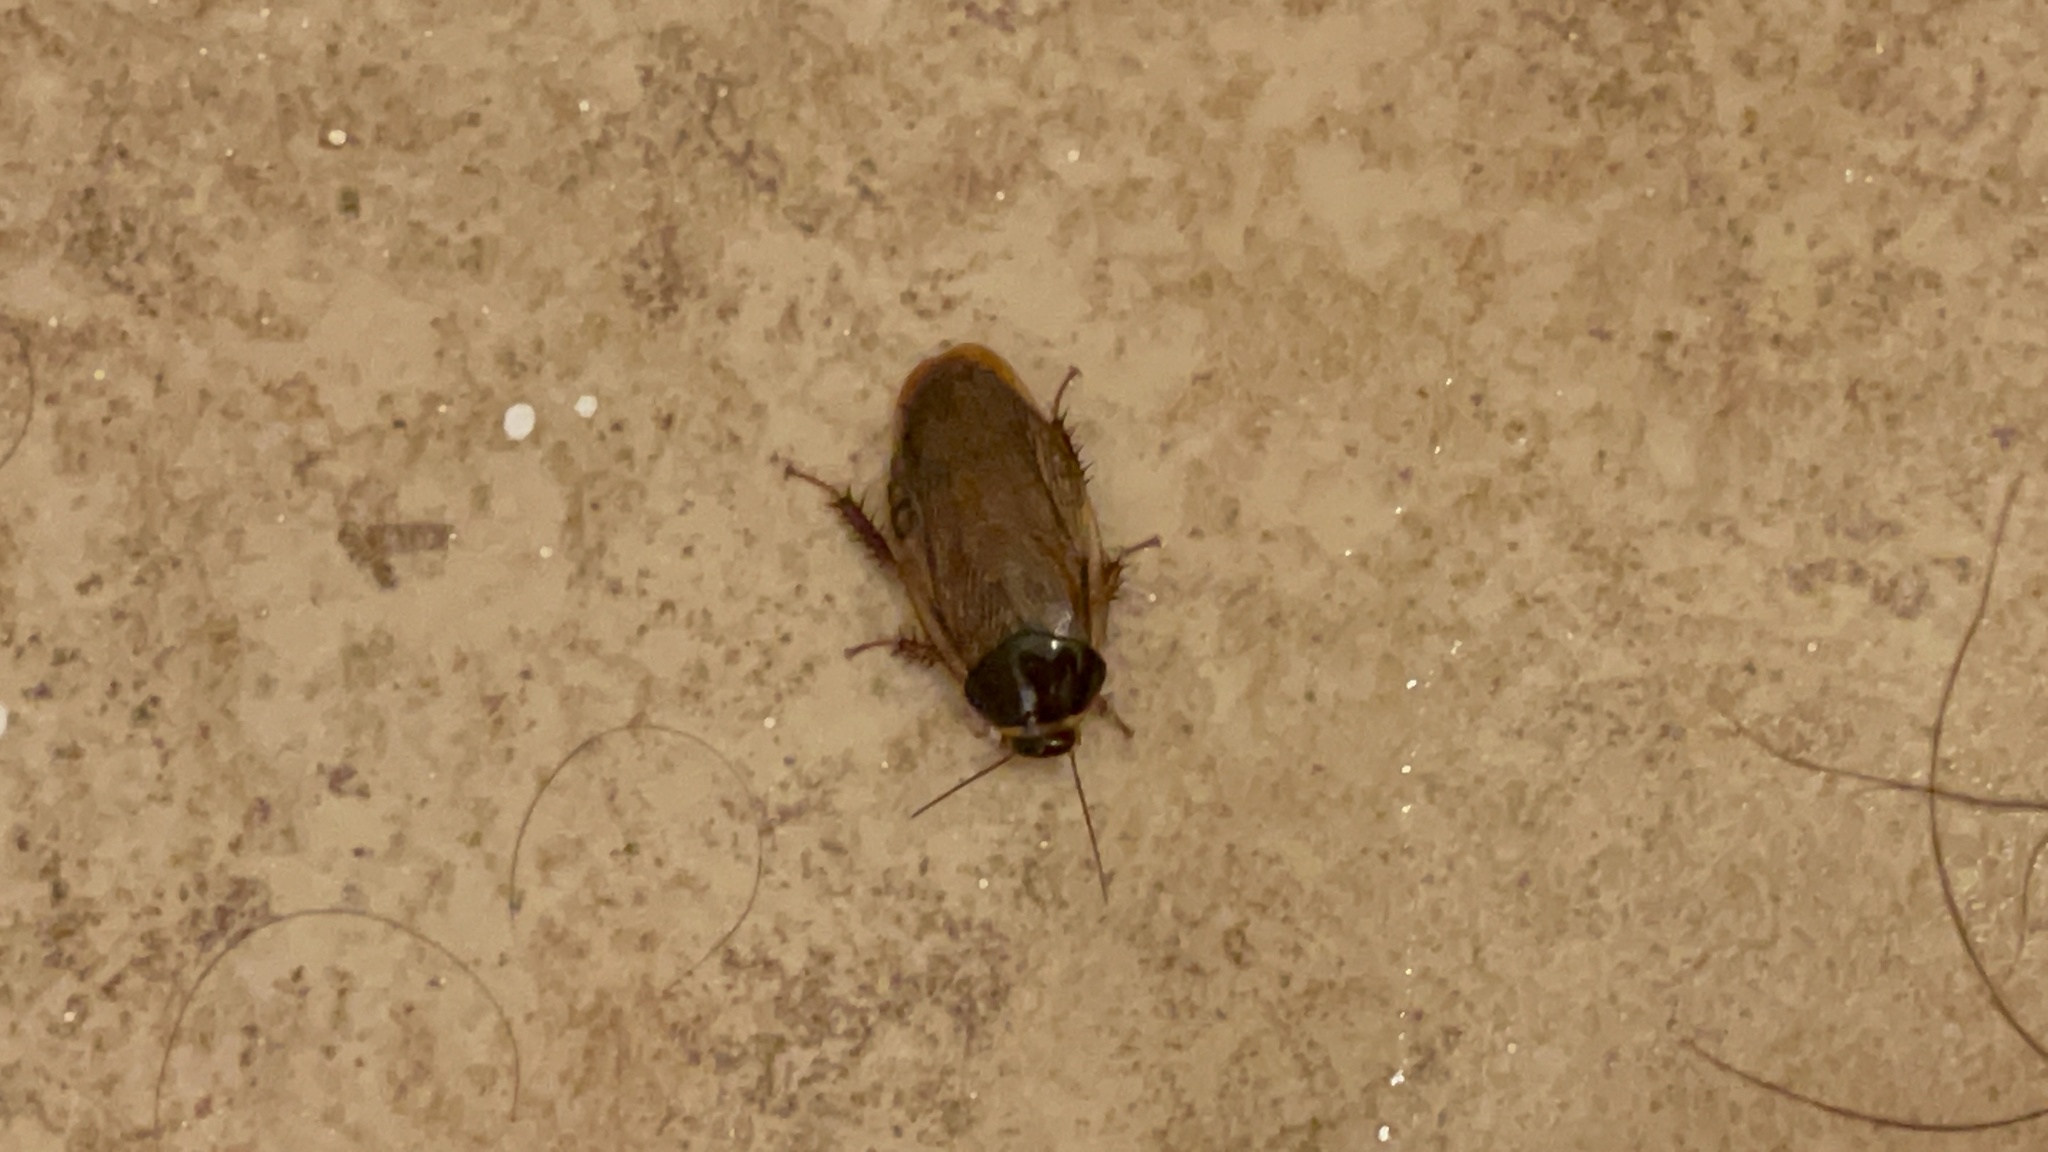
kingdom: Animalia
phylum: Arthropoda
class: Insecta
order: Blattodea
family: Blaberidae
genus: Pycnoscelus
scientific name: Pycnoscelus surinamensis
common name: Surinam cockroach
